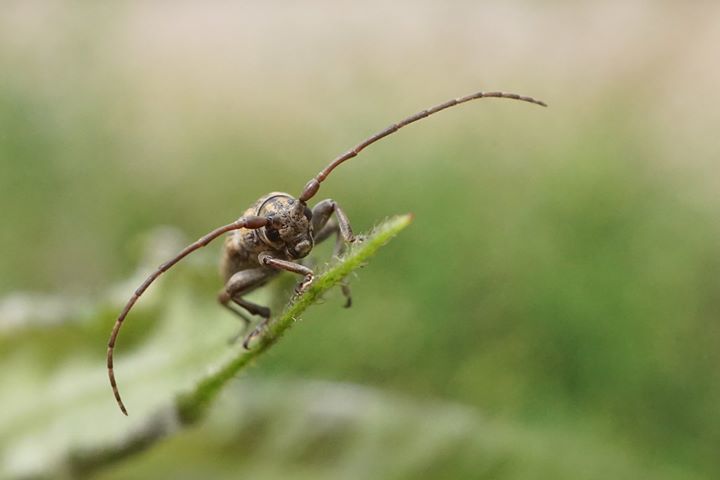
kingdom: Animalia
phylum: Arthropoda
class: Insecta
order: Coleoptera
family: Cerambycidae
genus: Mycerinopsis
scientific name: Mycerinopsis alternans
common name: Long horned beetle
